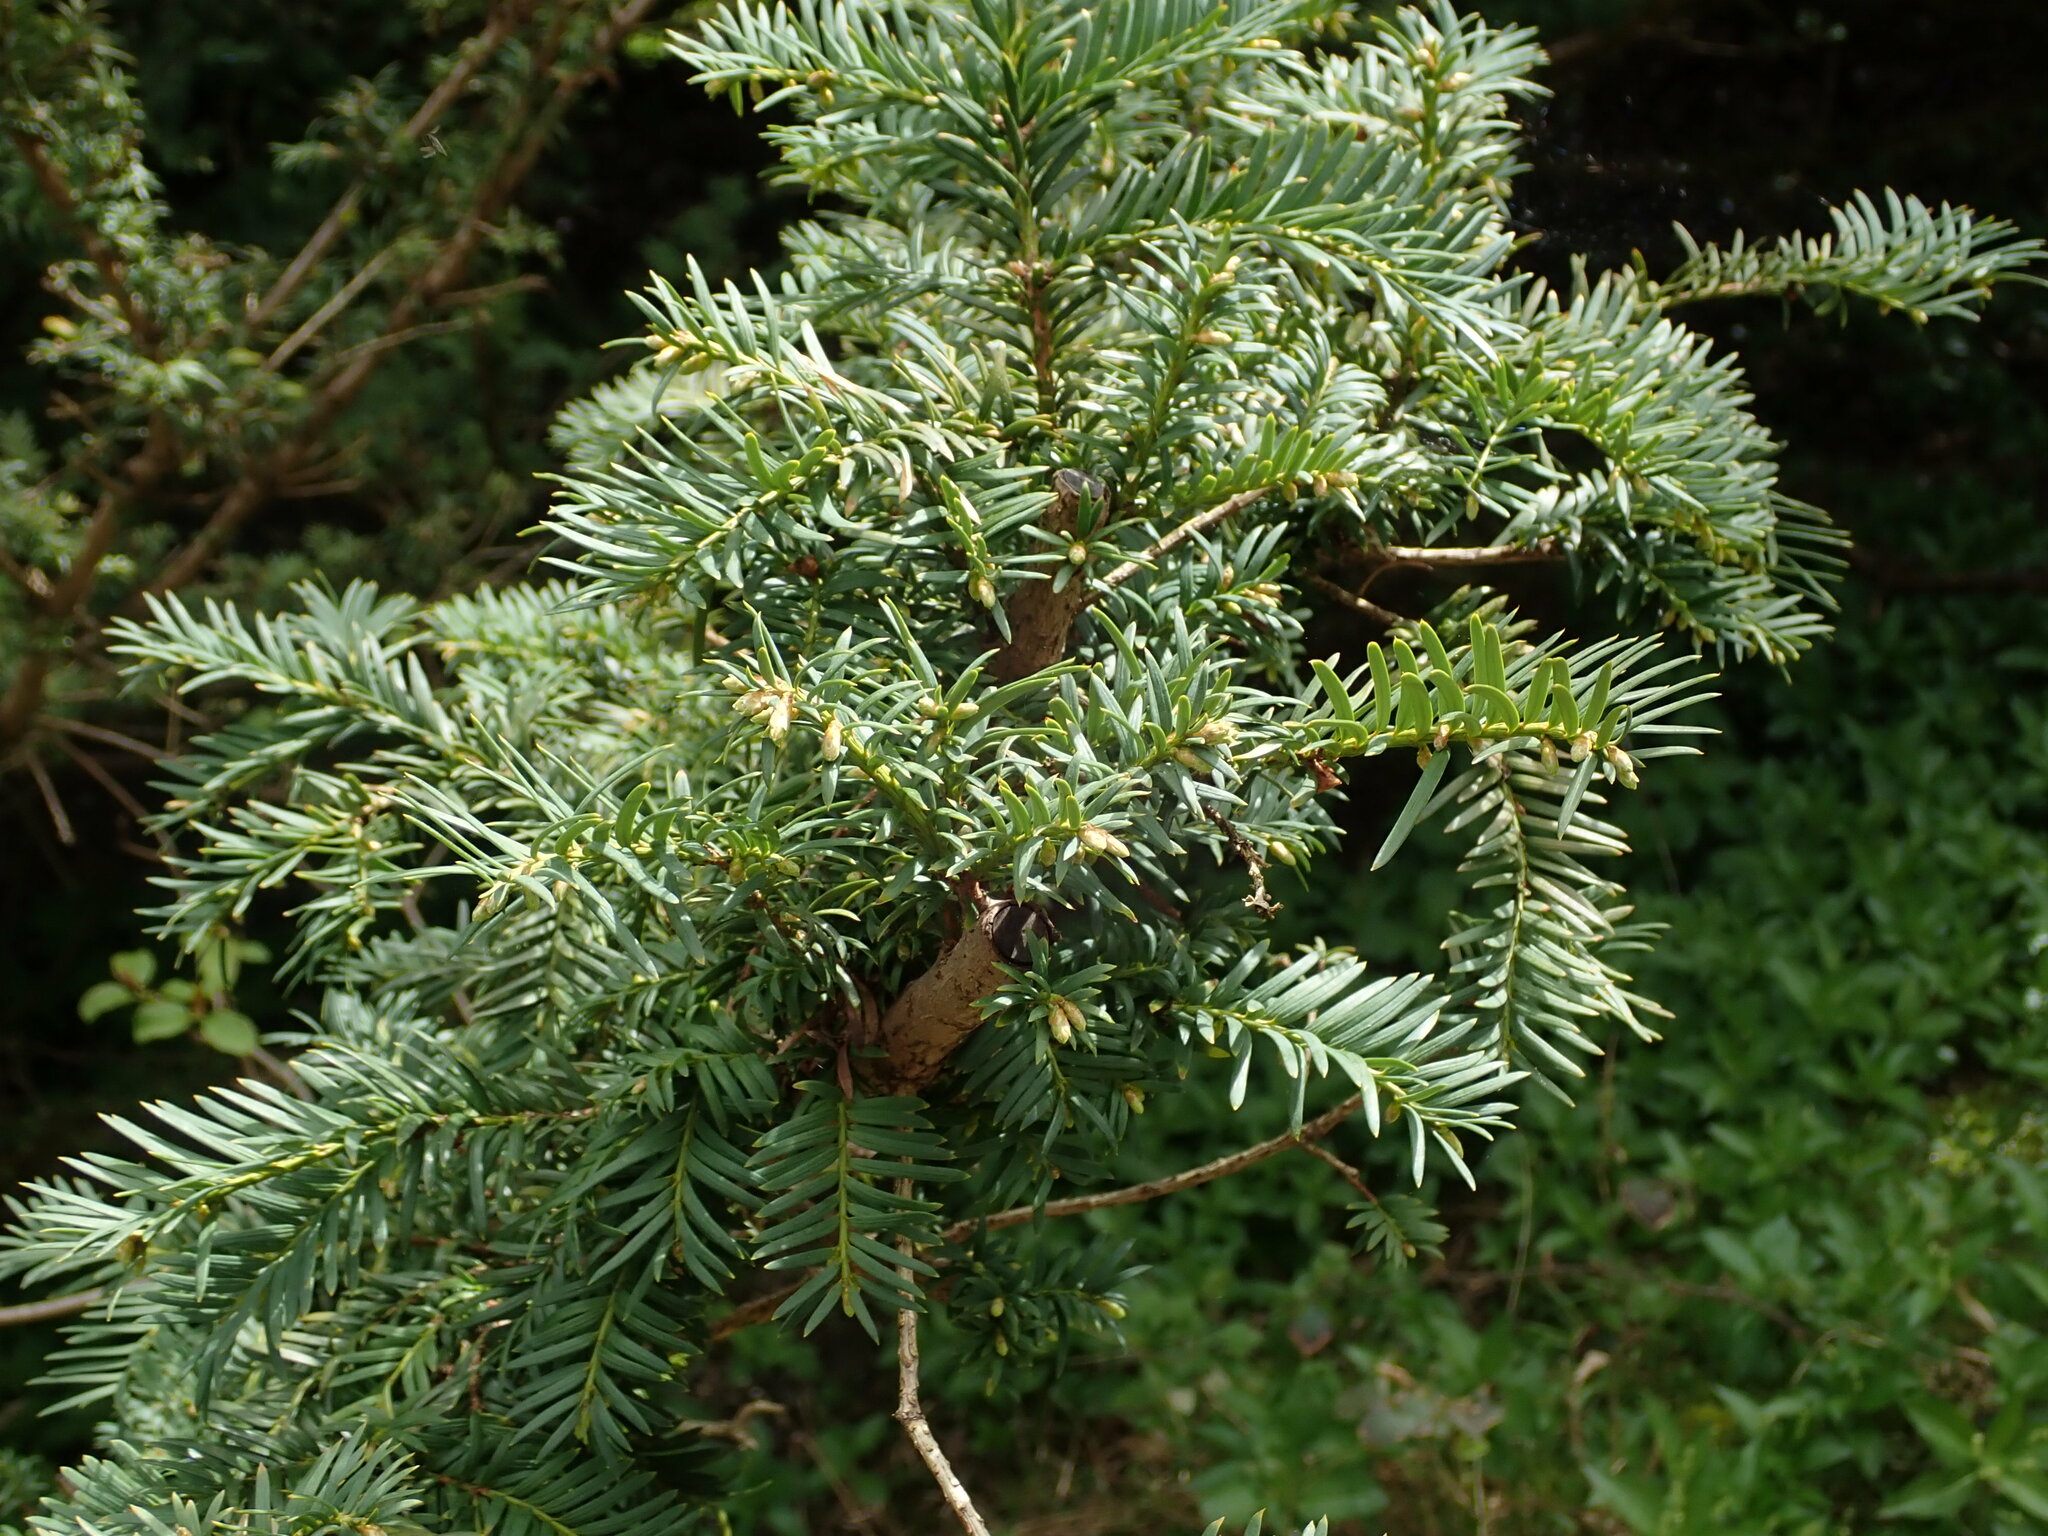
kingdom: Plantae
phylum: Tracheophyta
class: Pinopsida
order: Pinales
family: Taxaceae
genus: Taxus
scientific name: Taxus baccata
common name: Yew
